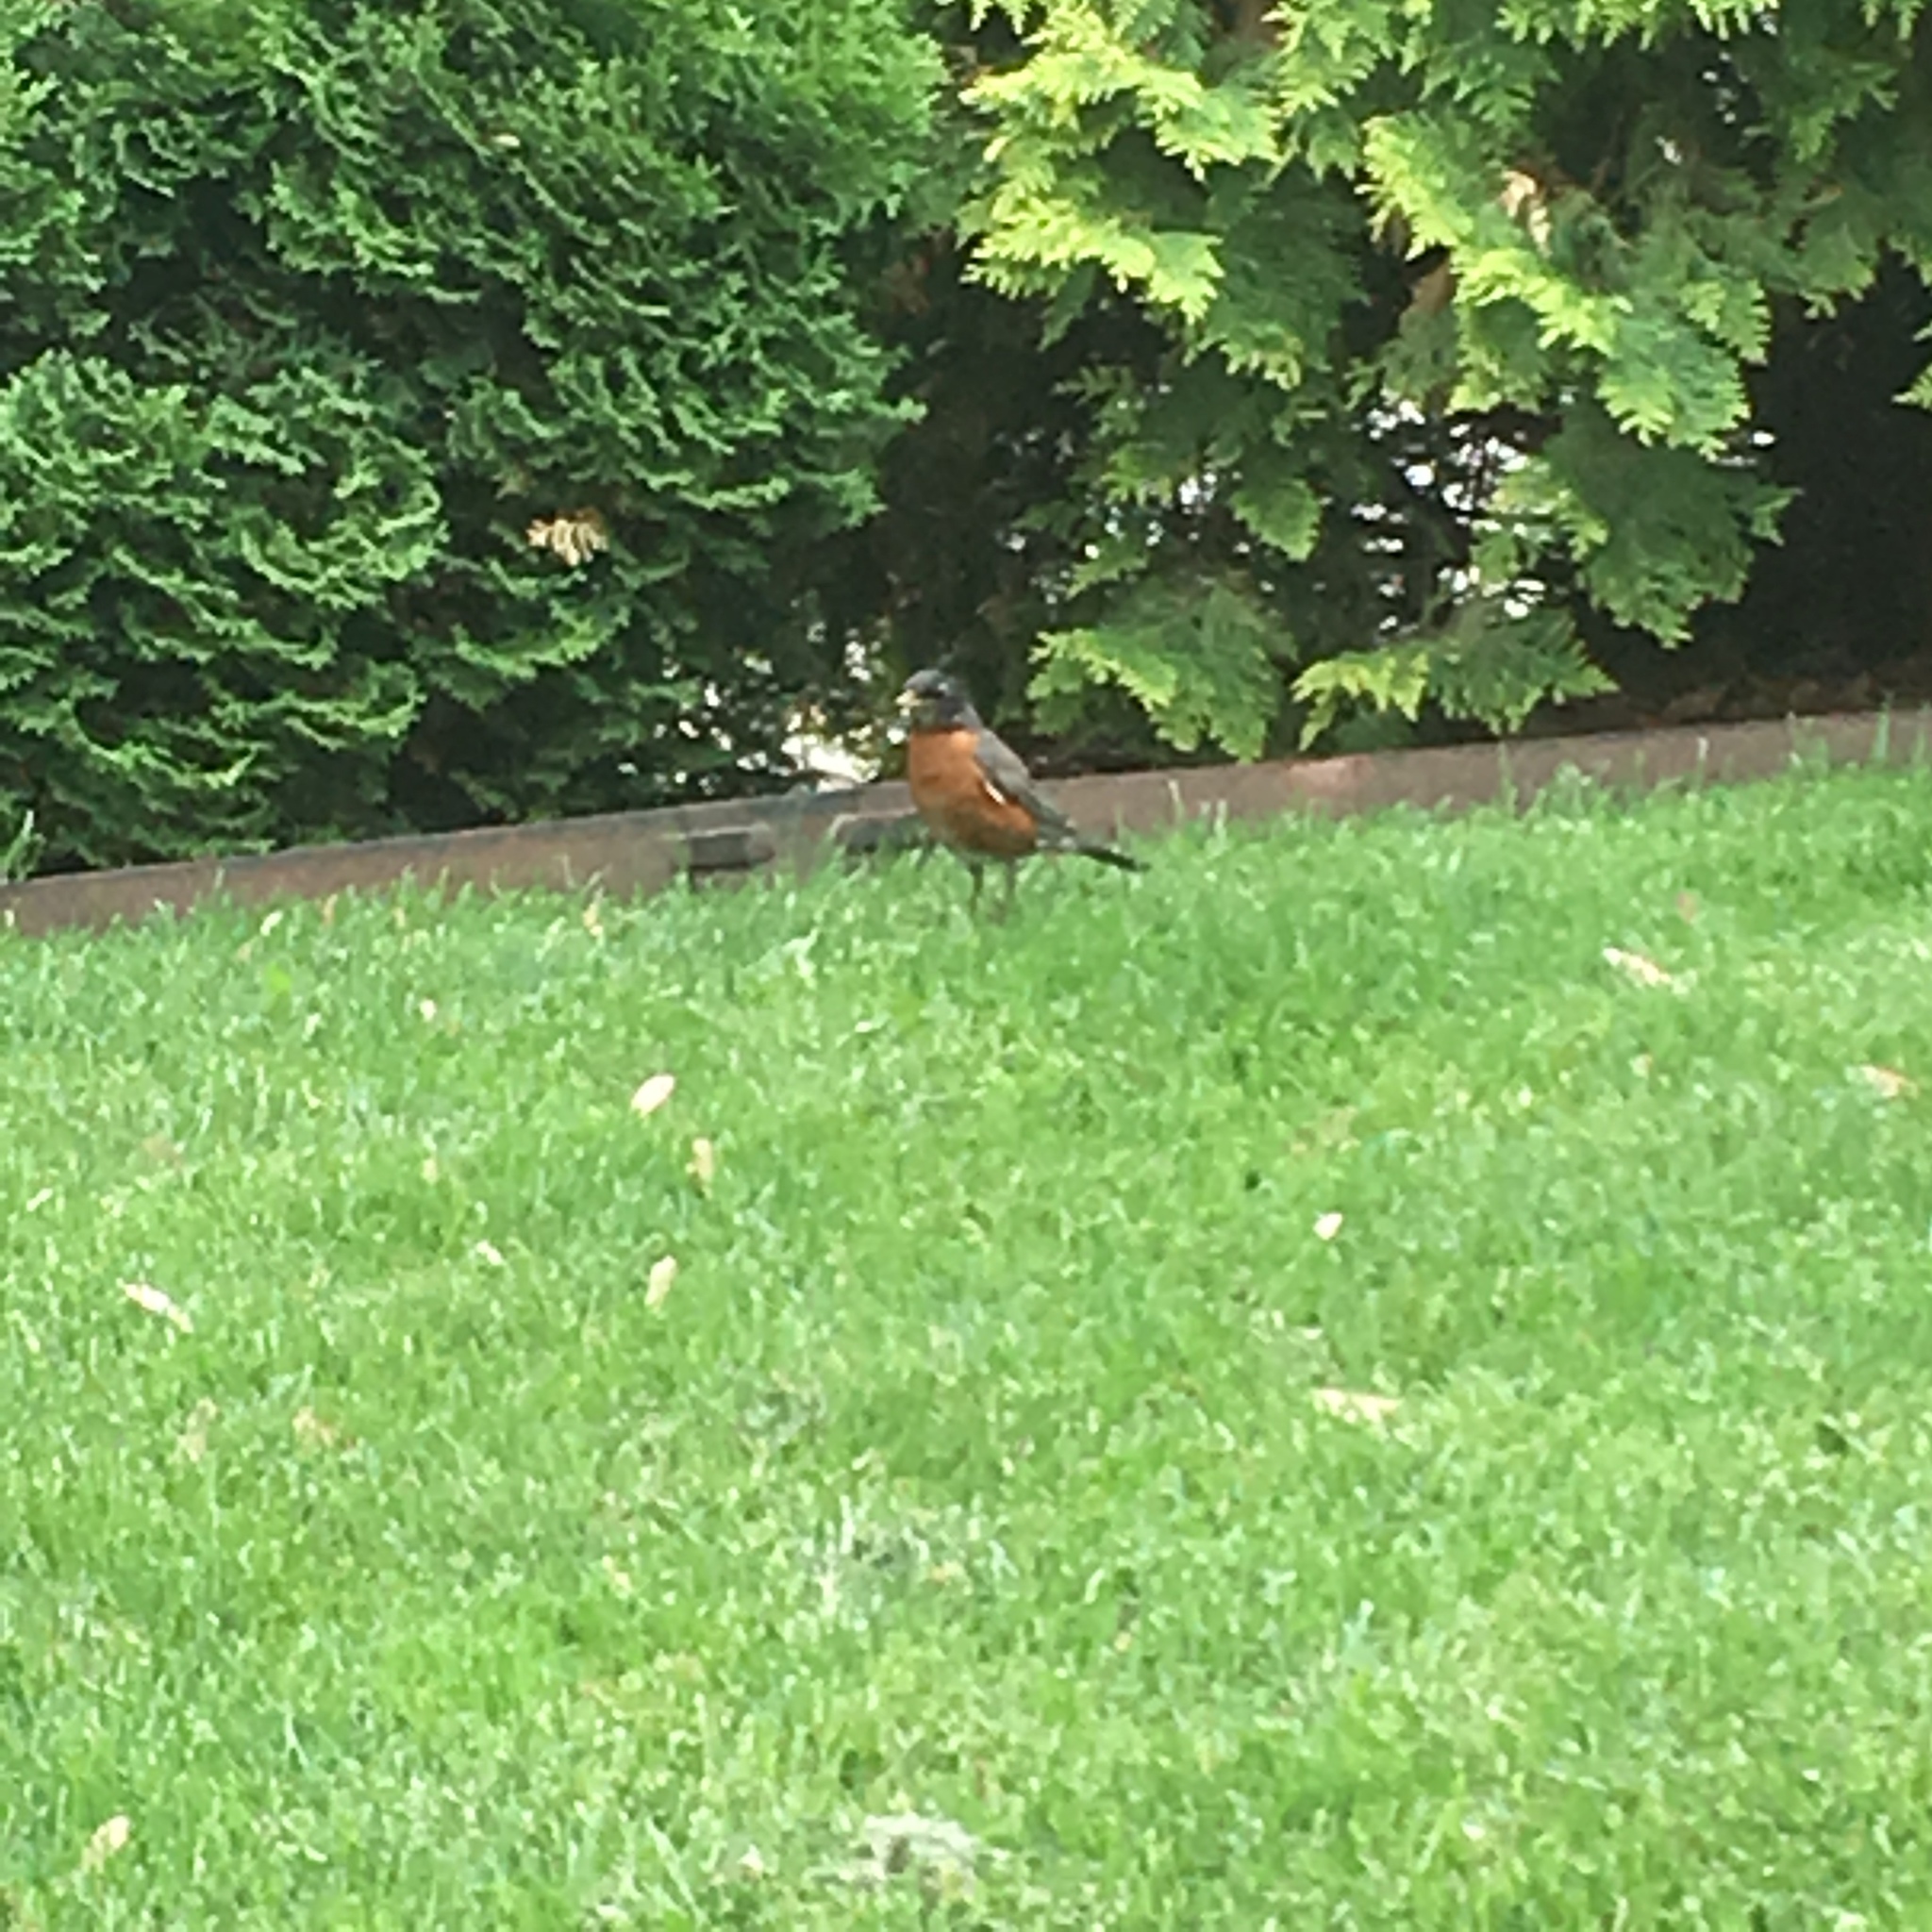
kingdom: Animalia
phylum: Chordata
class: Aves
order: Passeriformes
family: Turdidae
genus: Turdus
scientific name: Turdus migratorius
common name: American robin
